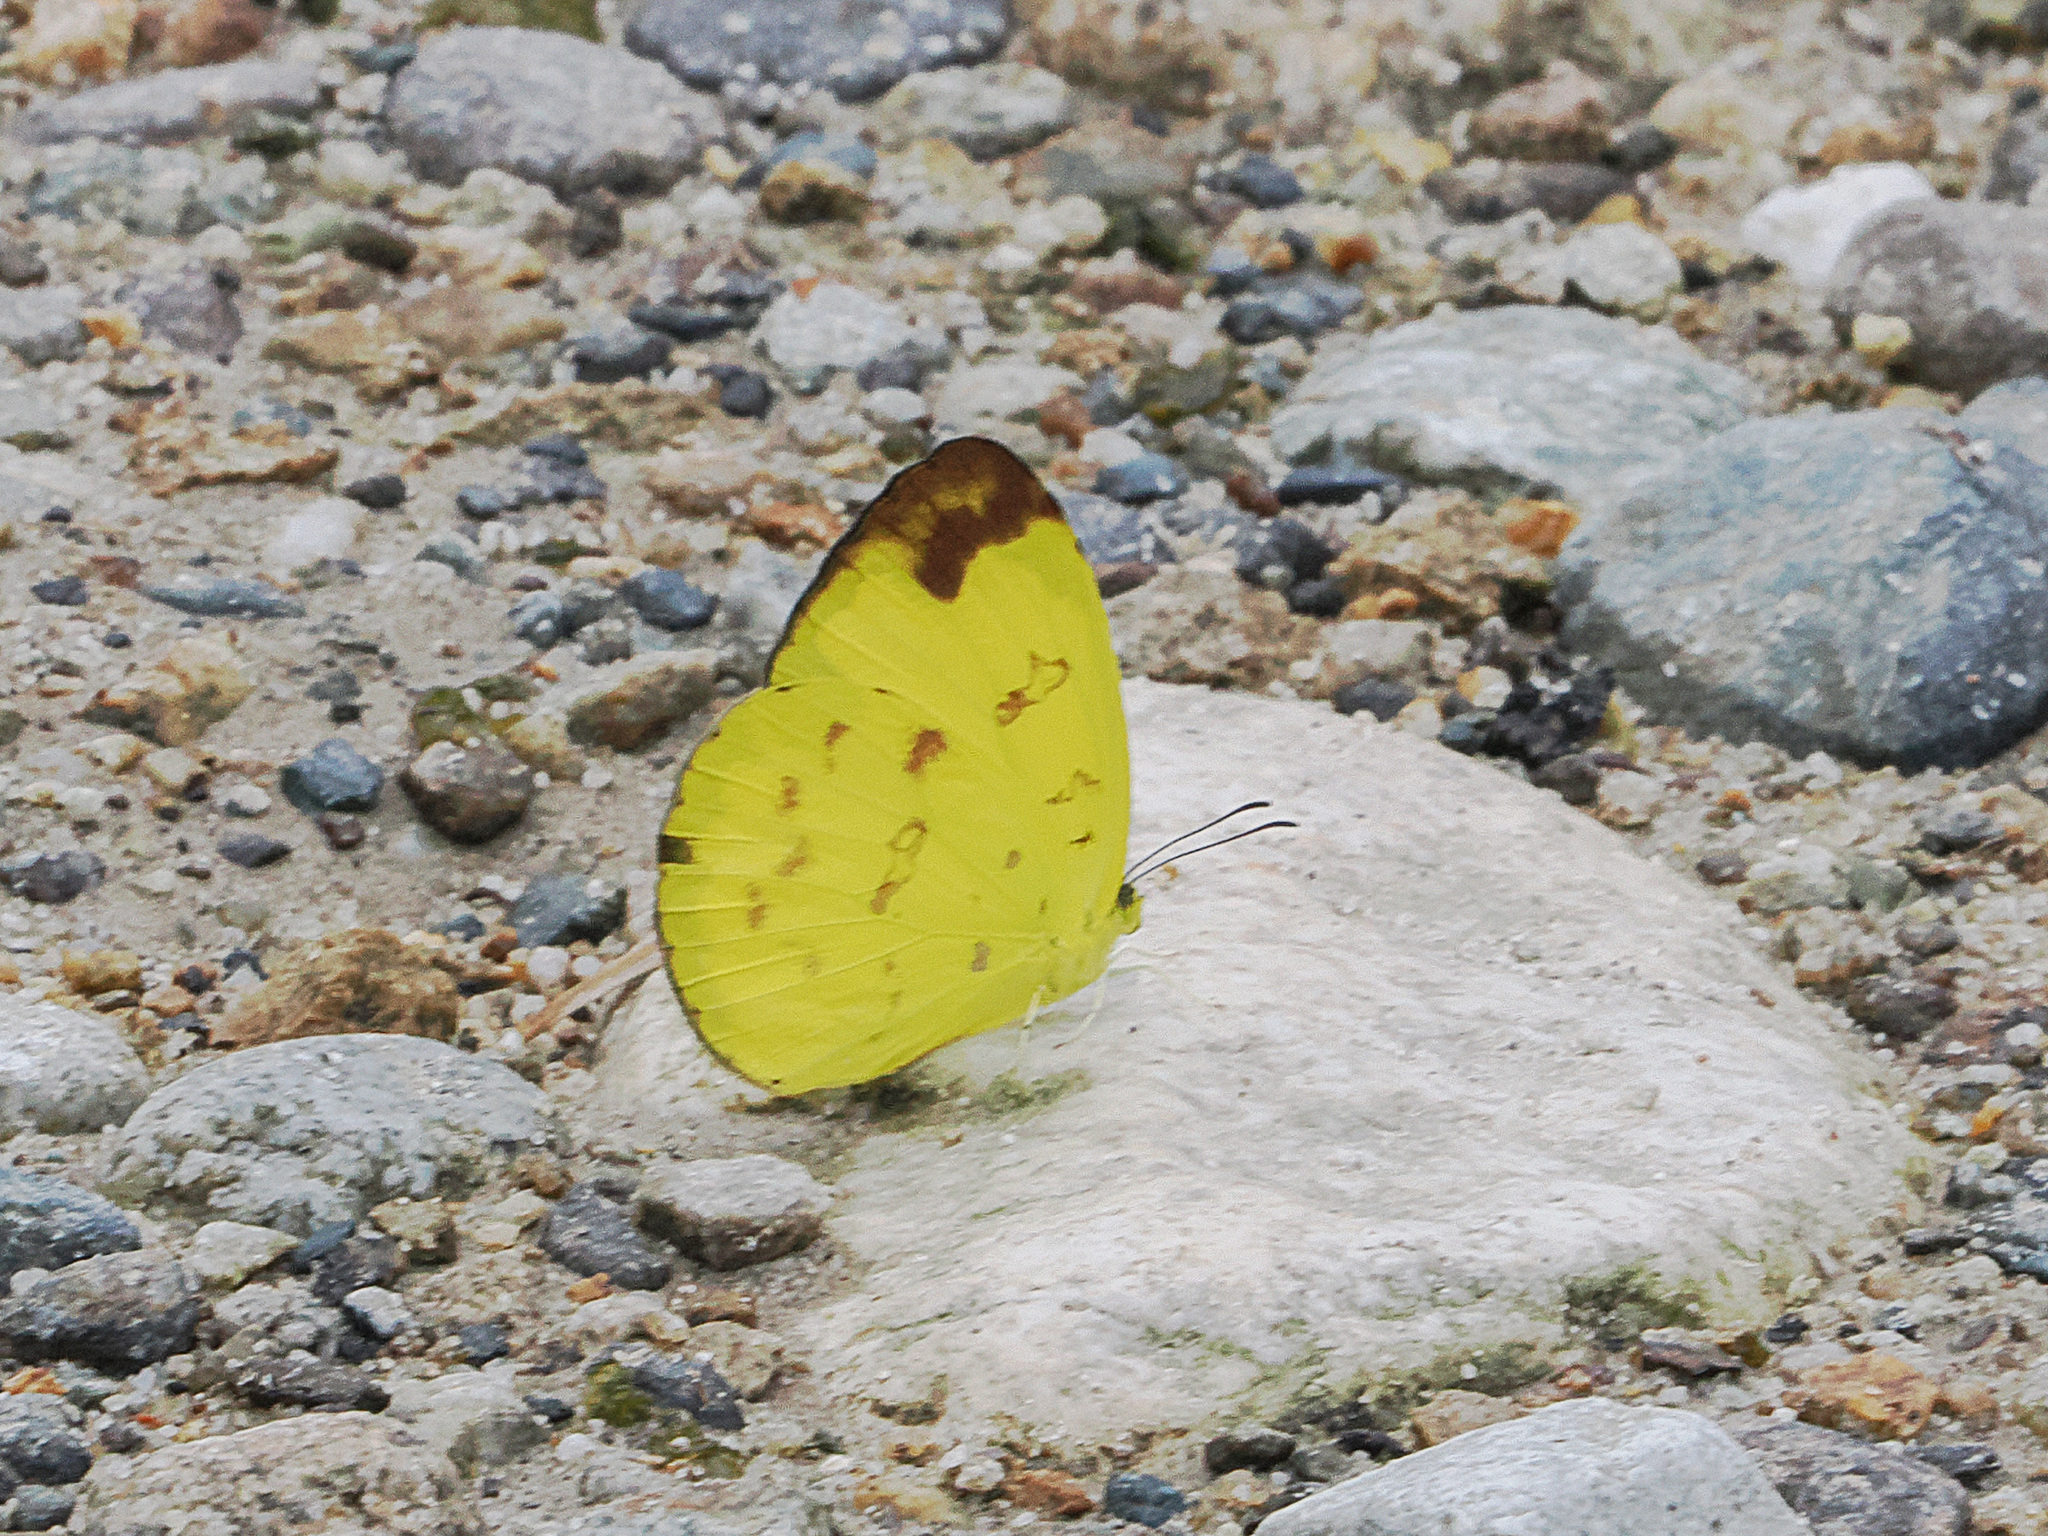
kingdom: Animalia
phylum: Arthropoda
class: Insecta
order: Lepidoptera
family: Pieridae
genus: Eurema
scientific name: Eurema irena
